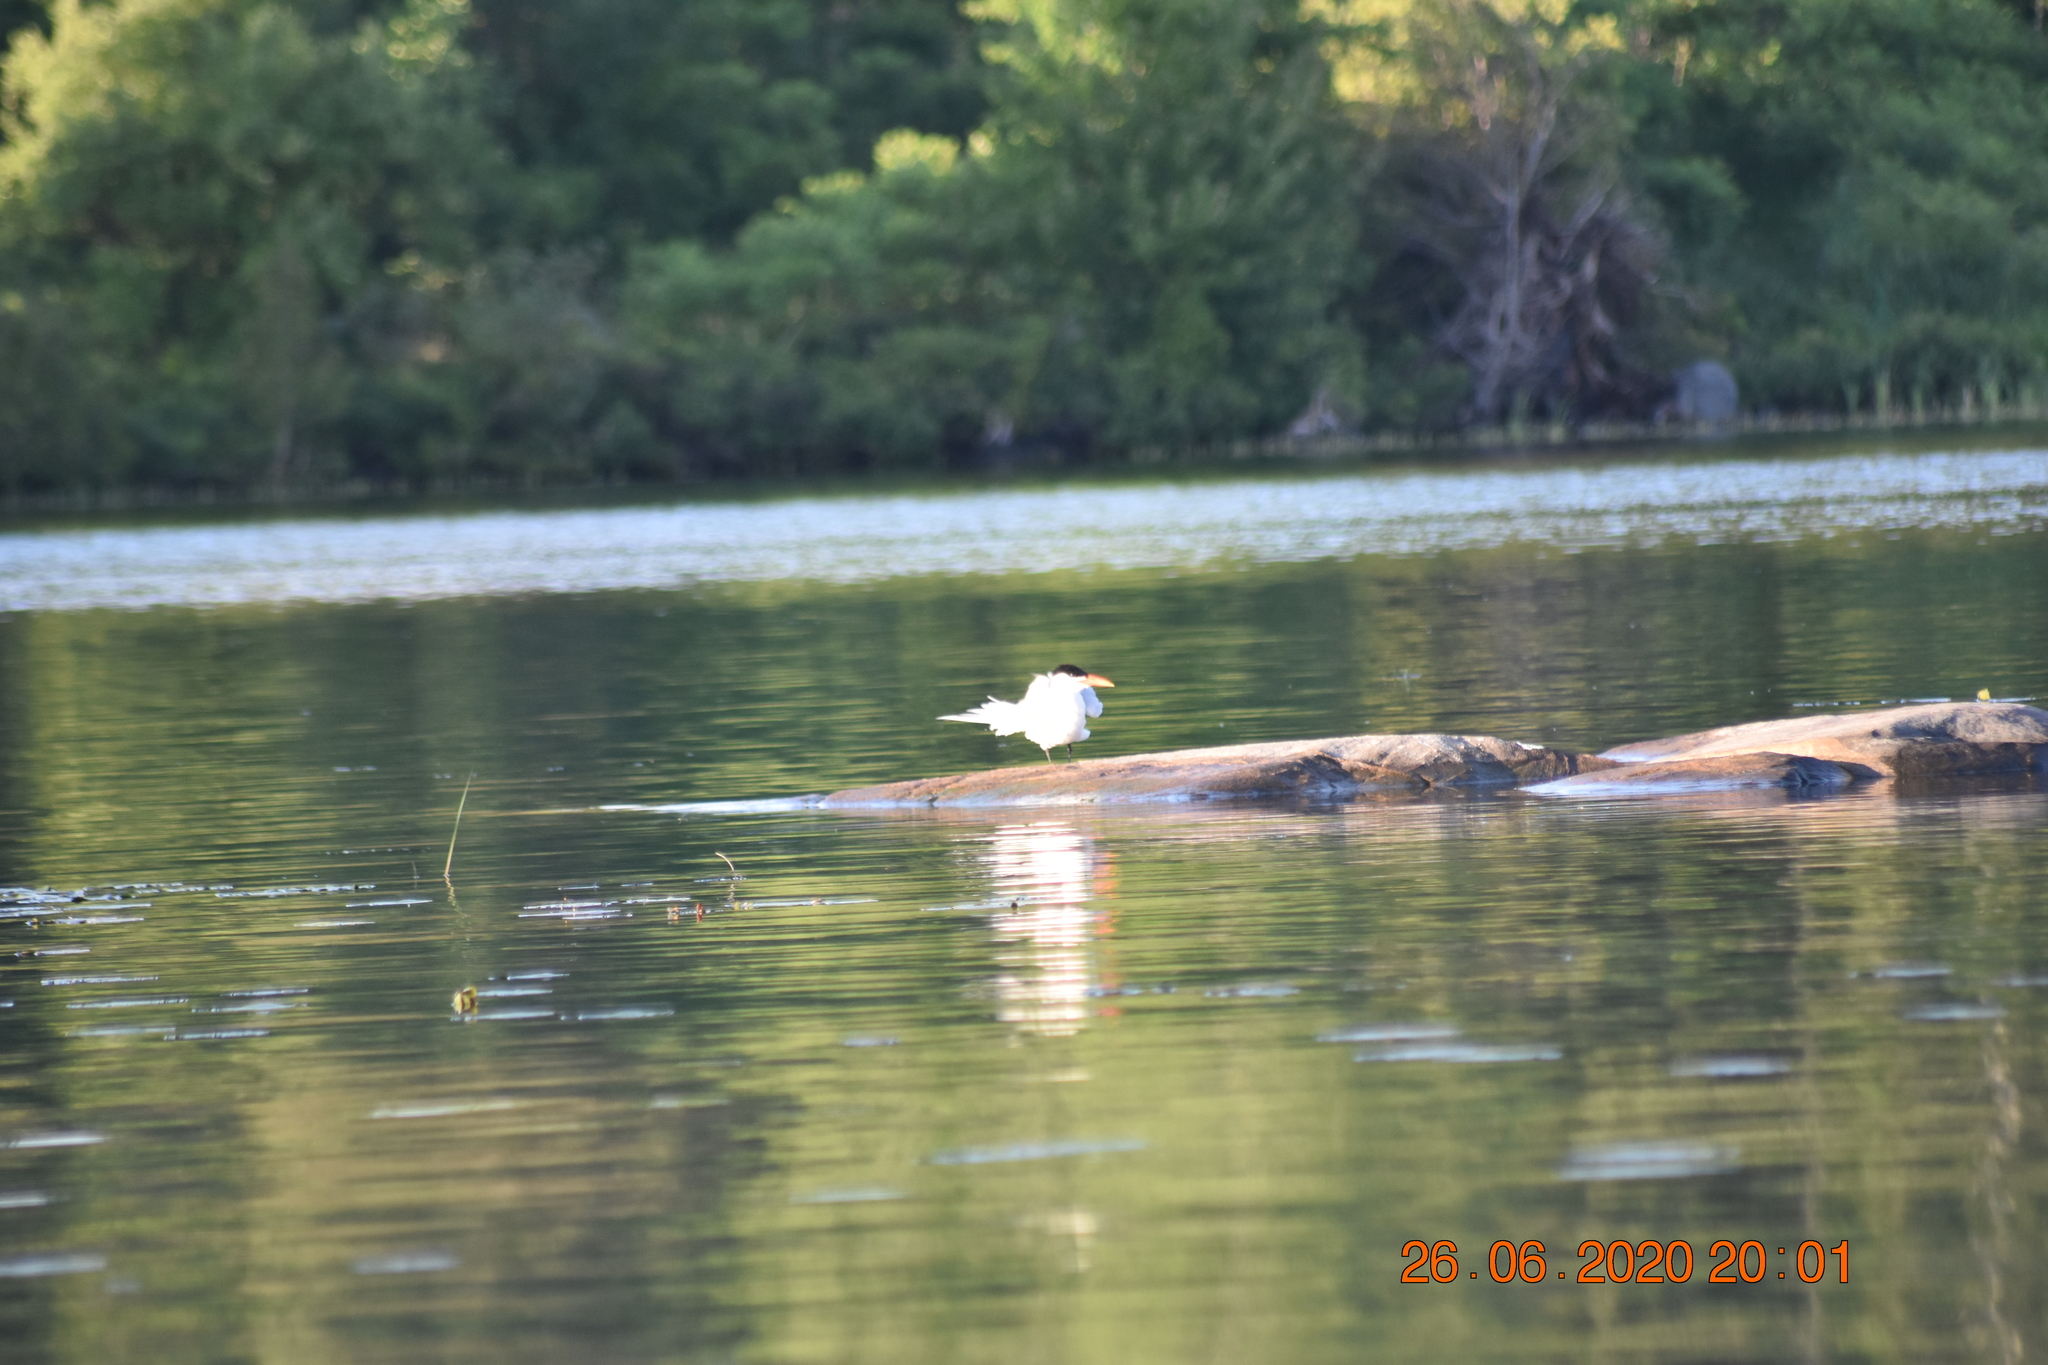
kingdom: Animalia
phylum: Chordata
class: Aves
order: Charadriiformes
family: Laridae
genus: Hydroprogne
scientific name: Hydroprogne caspia
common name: Caspian tern
